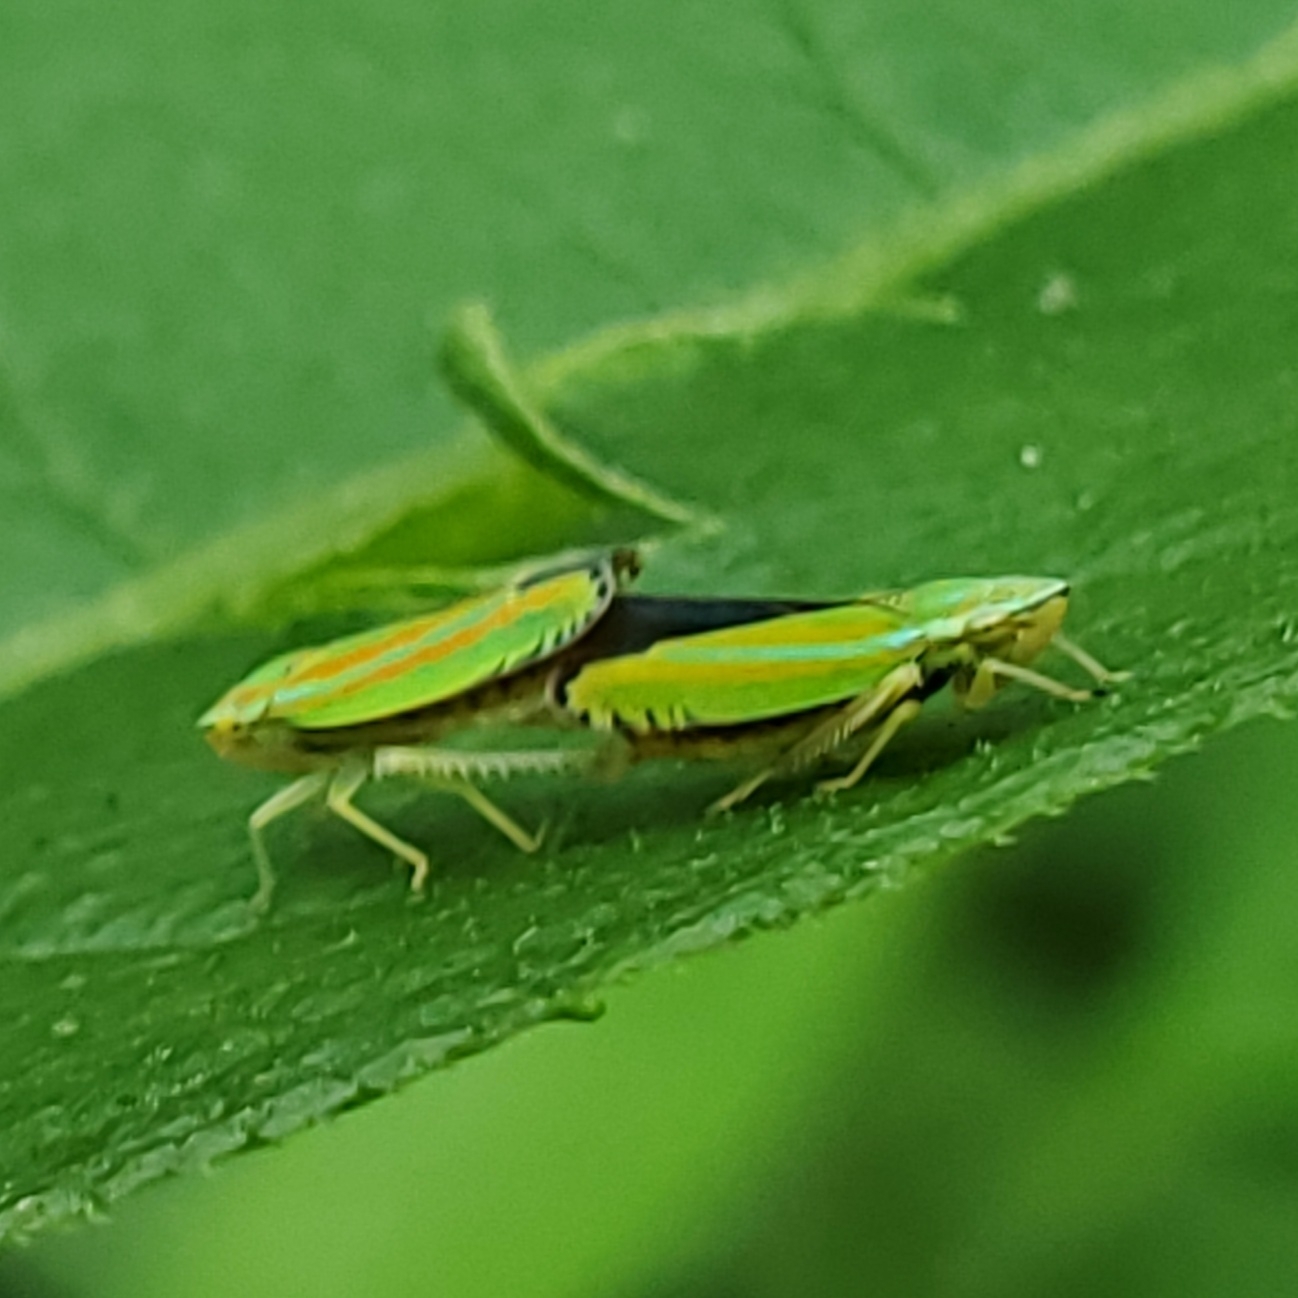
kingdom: Animalia
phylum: Arthropoda
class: Insecta
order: Hemiptera
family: Cicadellidae
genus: Graphocephala
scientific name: Graphocephala versuta
